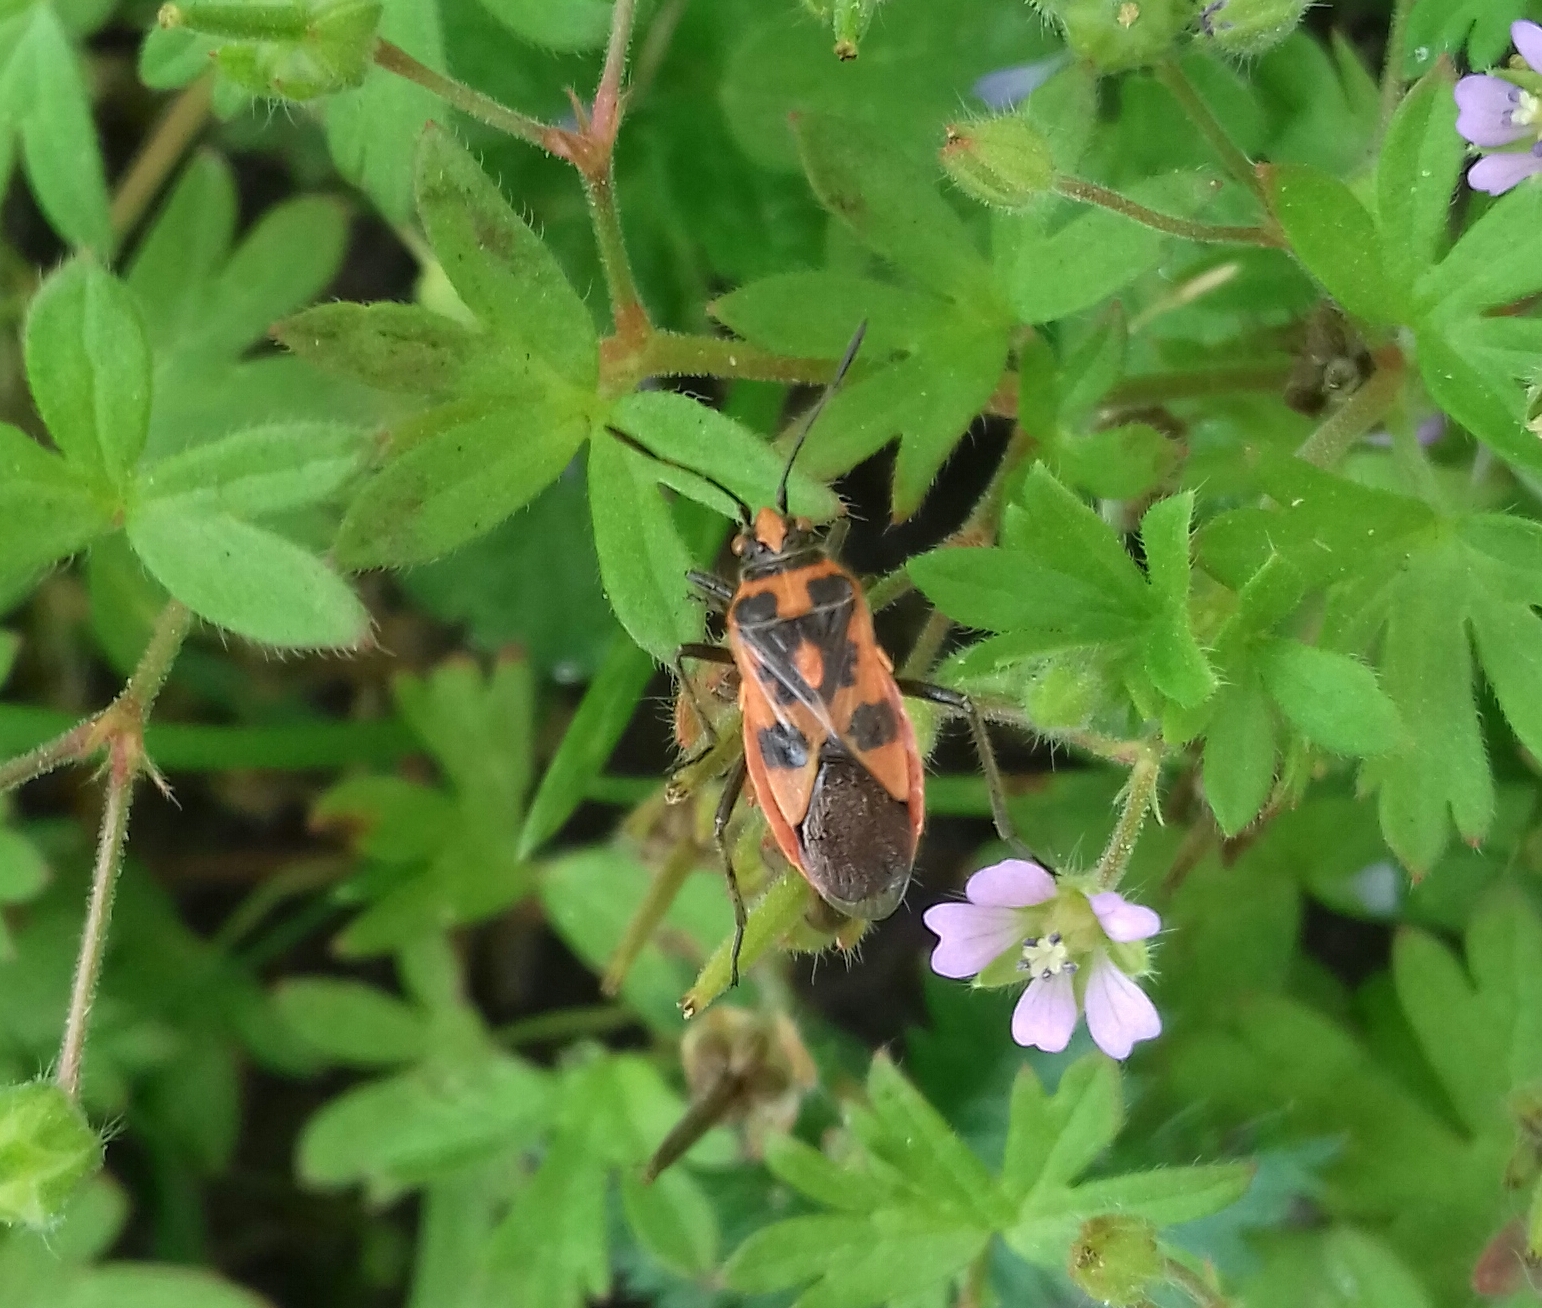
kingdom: Animalia
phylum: Arthropoda
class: Insecta
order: Hemiptera
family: Rhopalidae
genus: Corizus
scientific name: Corizus hyoscyami
